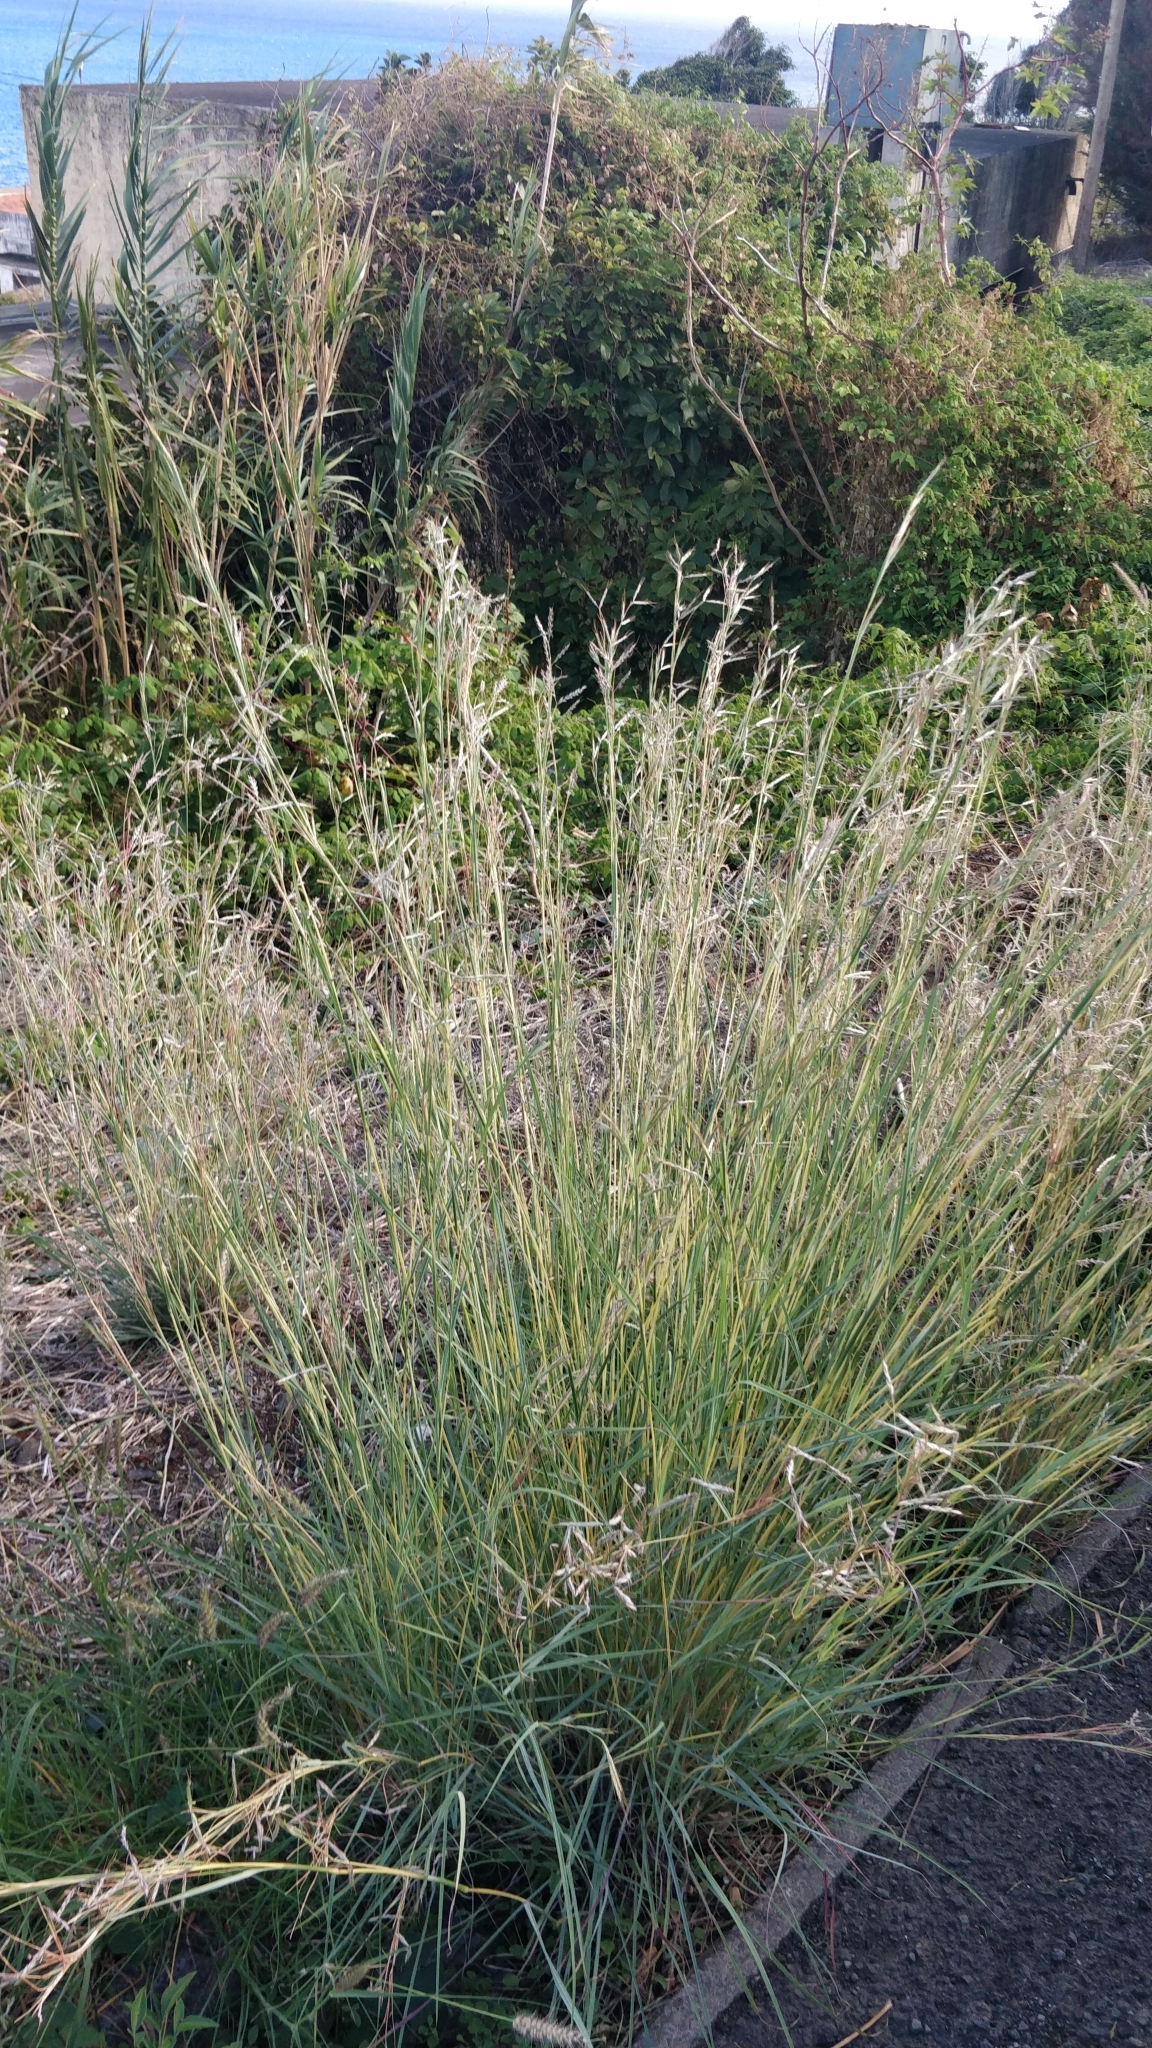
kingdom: Plantae
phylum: Tracheophyta
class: Liliopsida
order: Poales
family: Poaceae
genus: Hyparrhenia
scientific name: Hyparrhenia hirta
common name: Thatching grass
